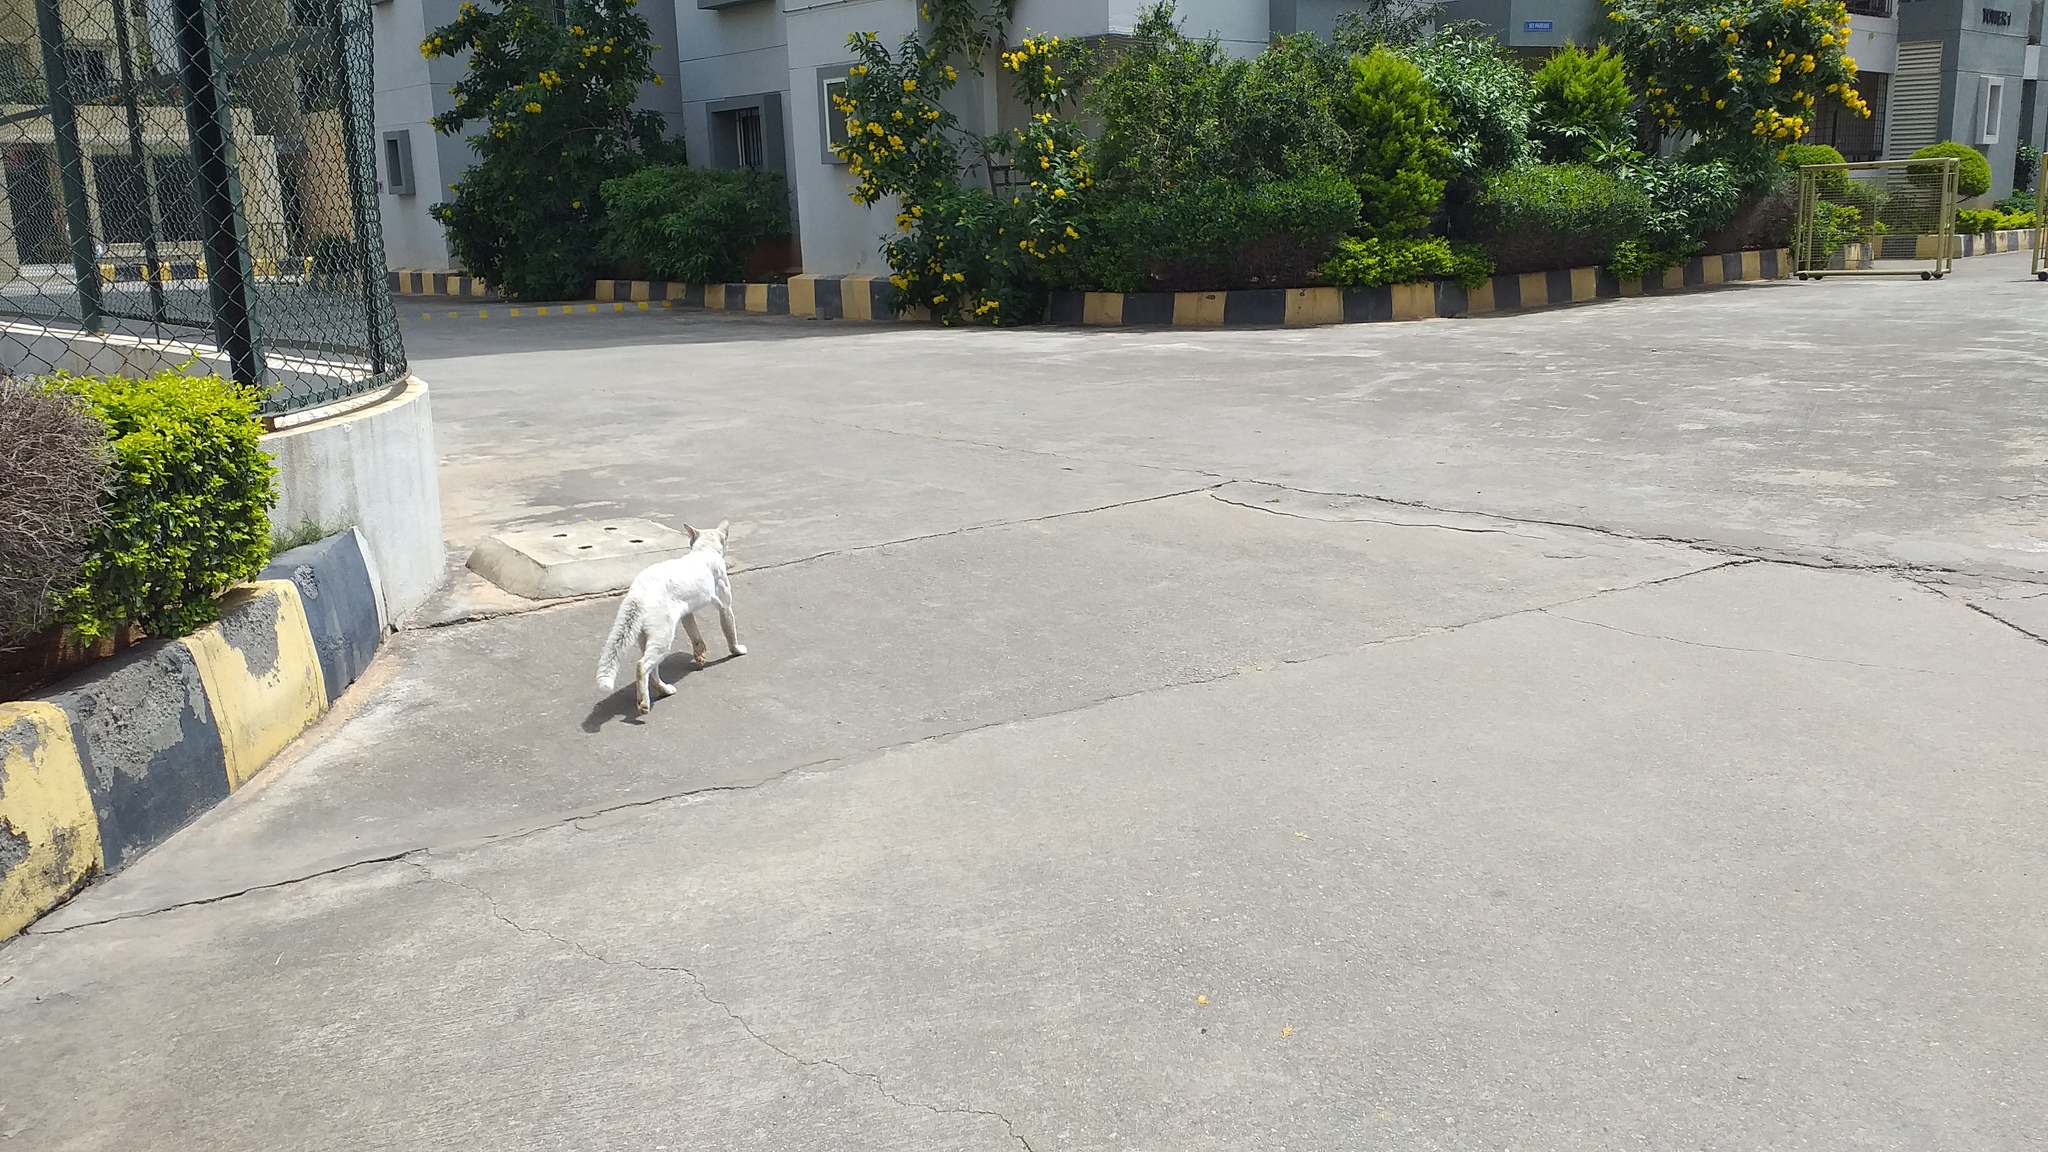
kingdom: Animalia
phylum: Chordata
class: Mammalia
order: Carnivora
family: Felidae
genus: Felis
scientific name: Felis catus
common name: Domestic cat
